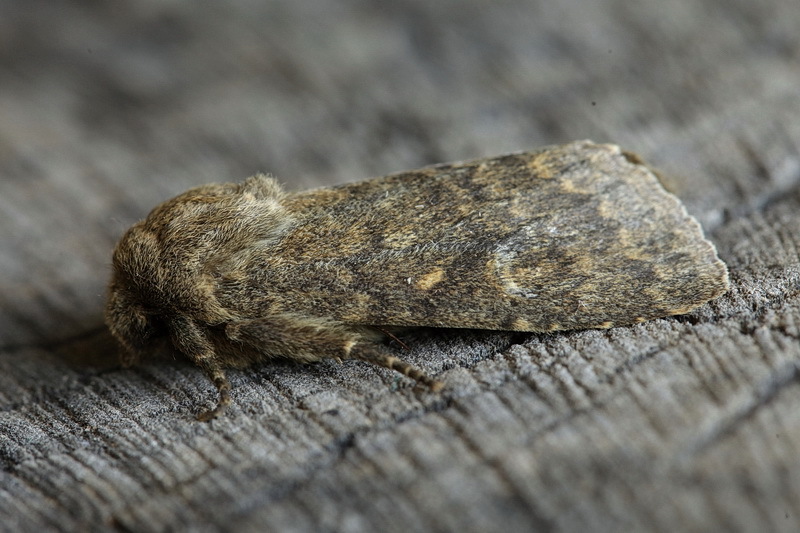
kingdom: Animalia
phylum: Arthropoda
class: Insecta
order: Lepidoptera
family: Noctuidae
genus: Dasypolia
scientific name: Dasypolia templi
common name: Brindled ochre
